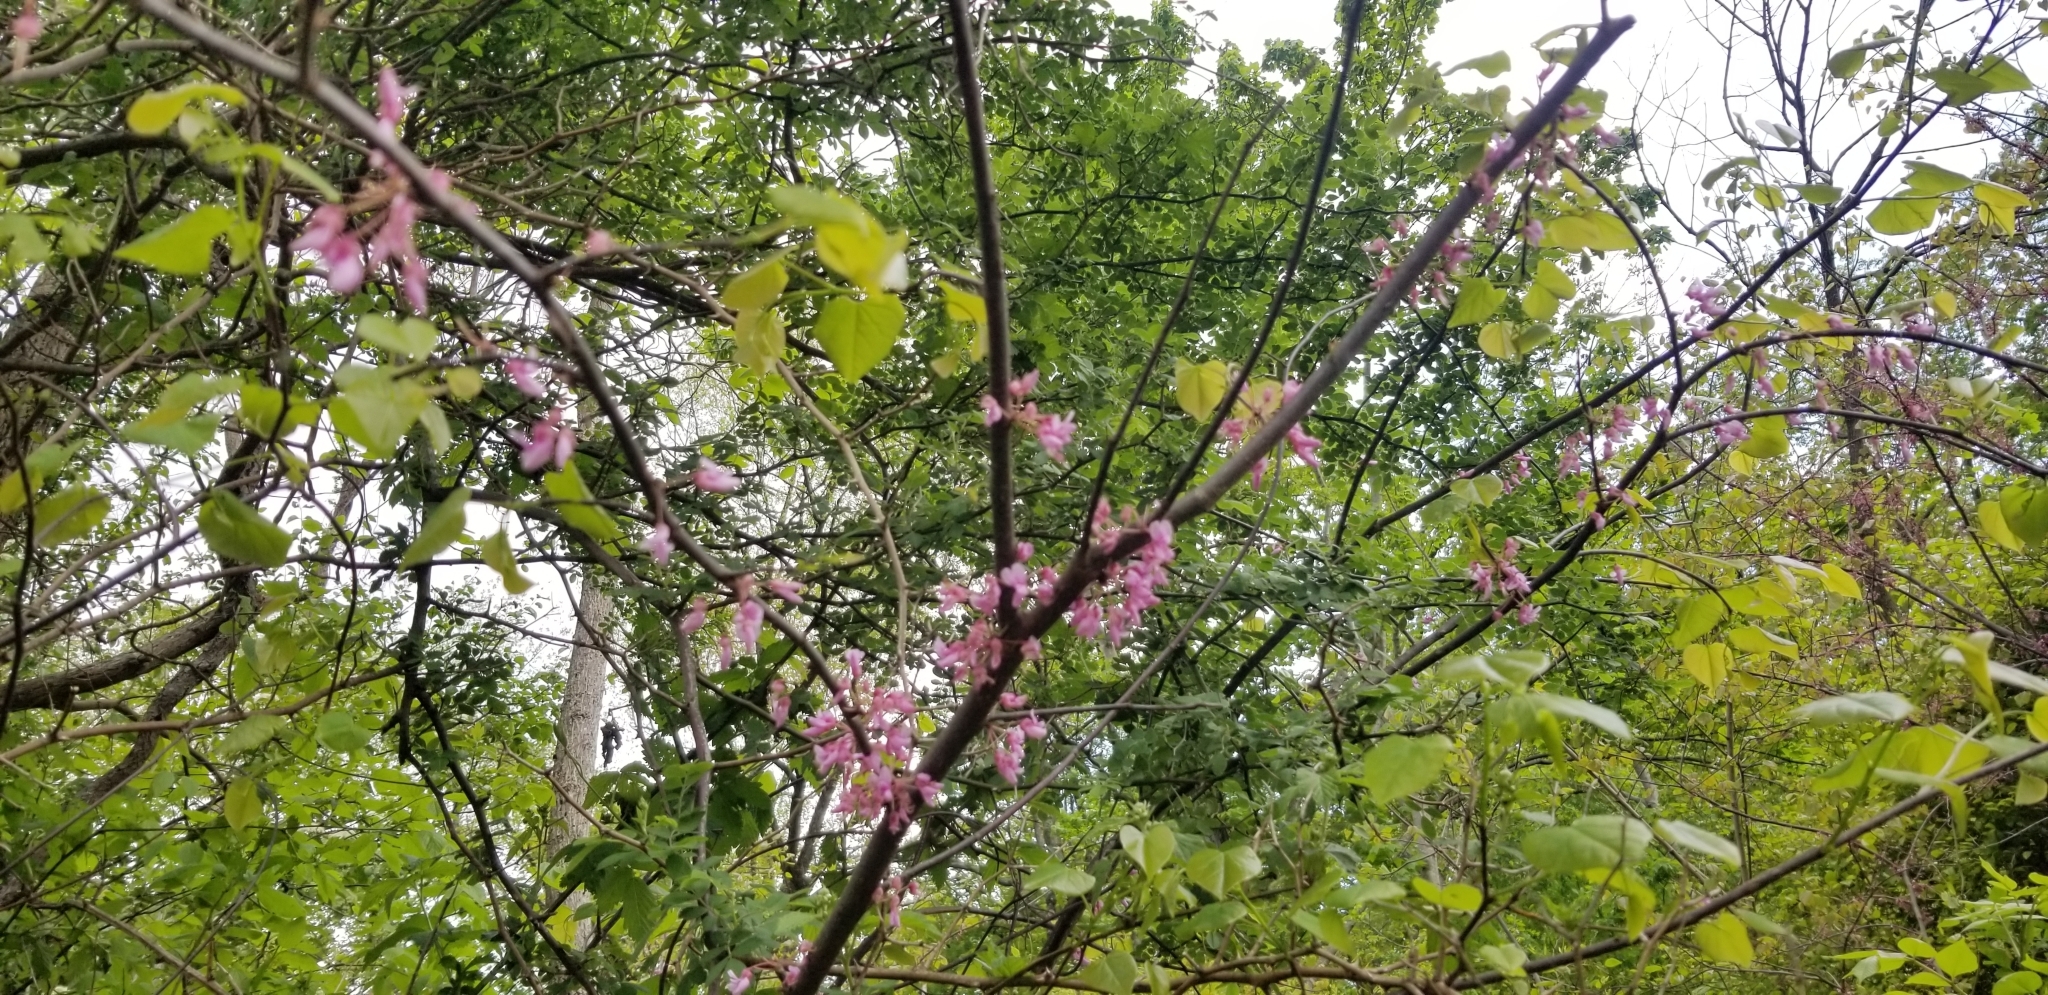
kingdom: Plantae
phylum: Tracheophyta
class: Magnoliopsida
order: Fabales
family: Fabaceae
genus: Cercis
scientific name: Cercis canadensis
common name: Eastern redbud
